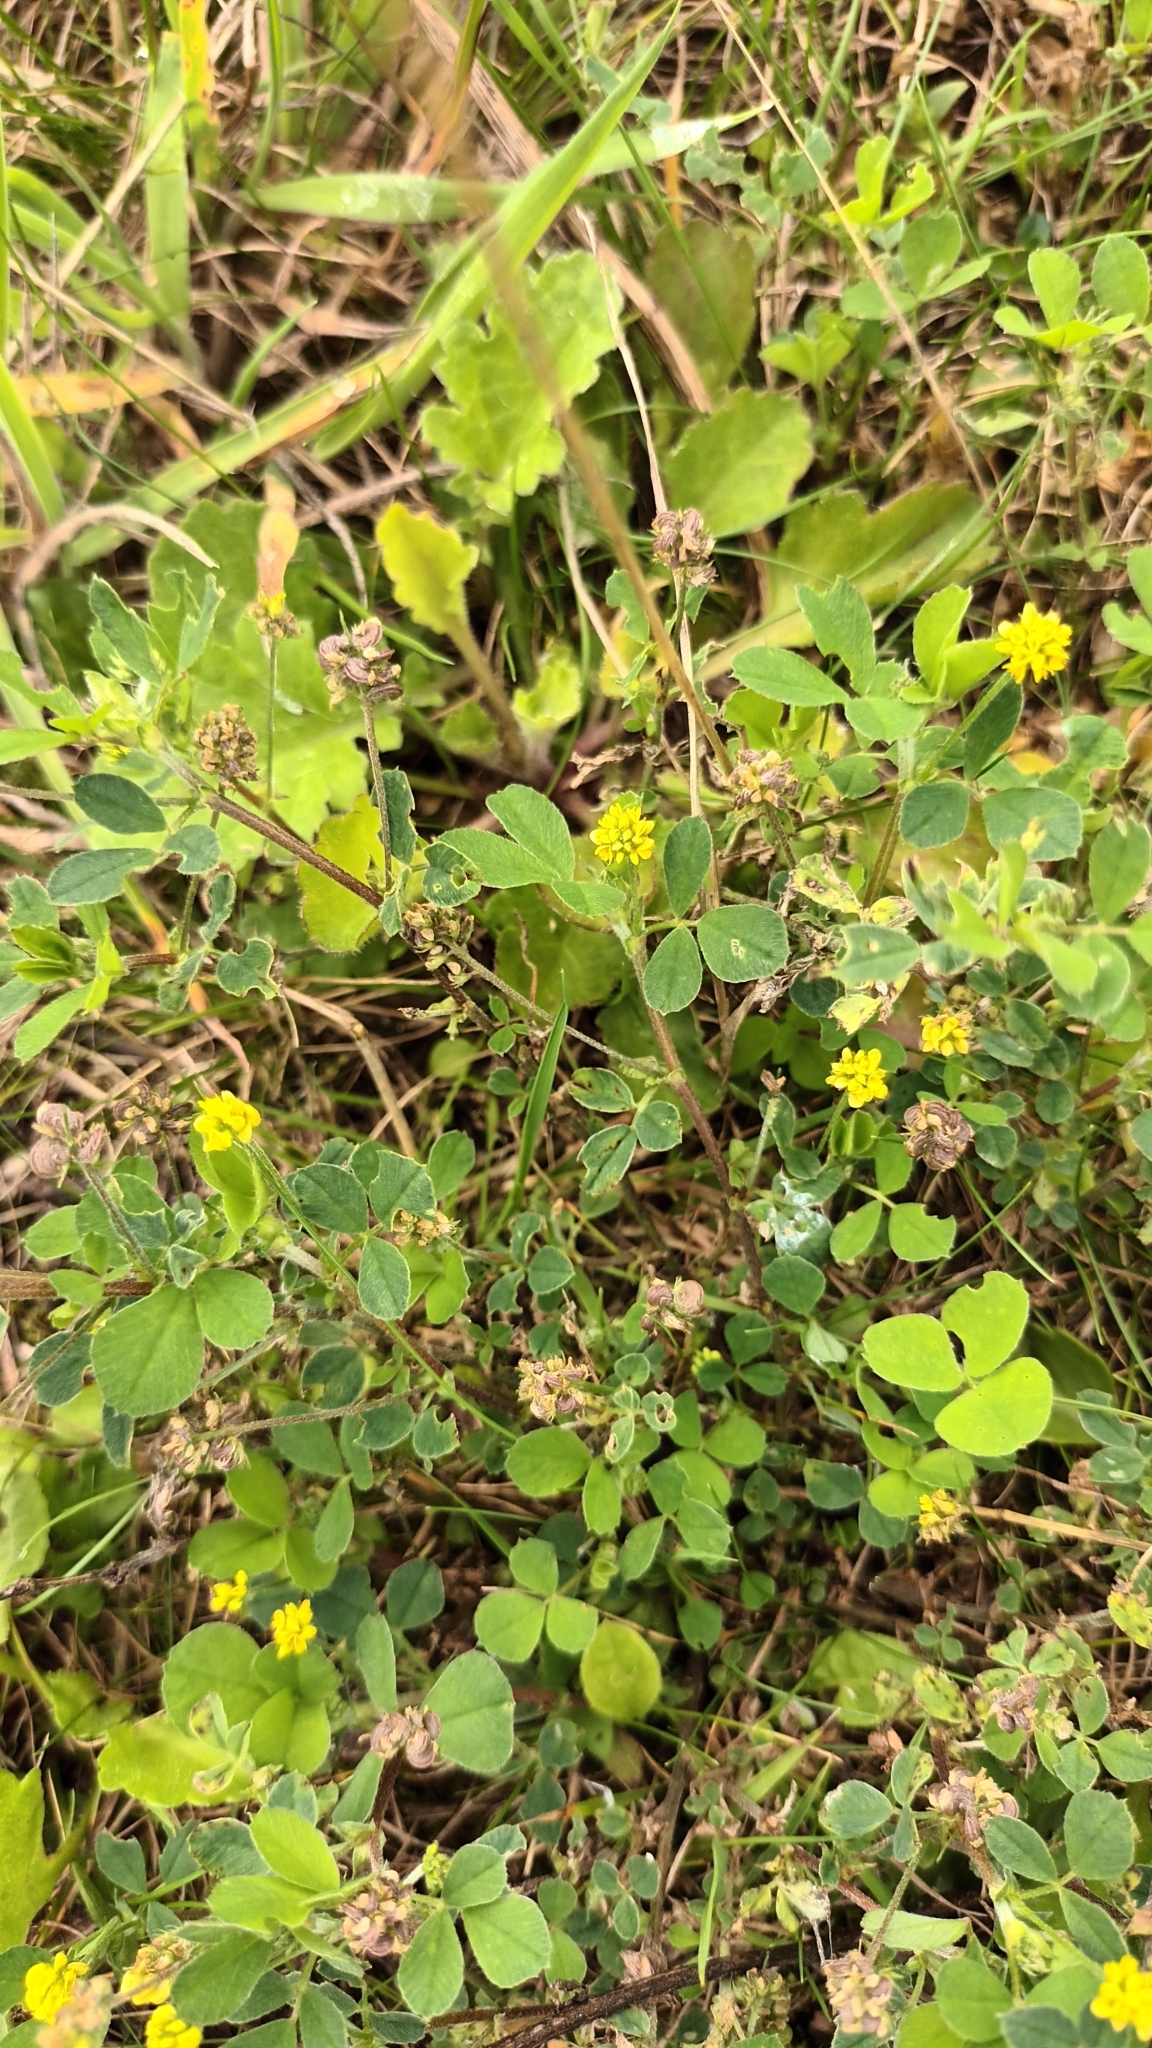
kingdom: Plantae
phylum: Tracheophyta
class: Magnoliopsida
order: Fabales
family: Fabaceae
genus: Medicago
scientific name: Medicago lupulina
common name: Black medick
